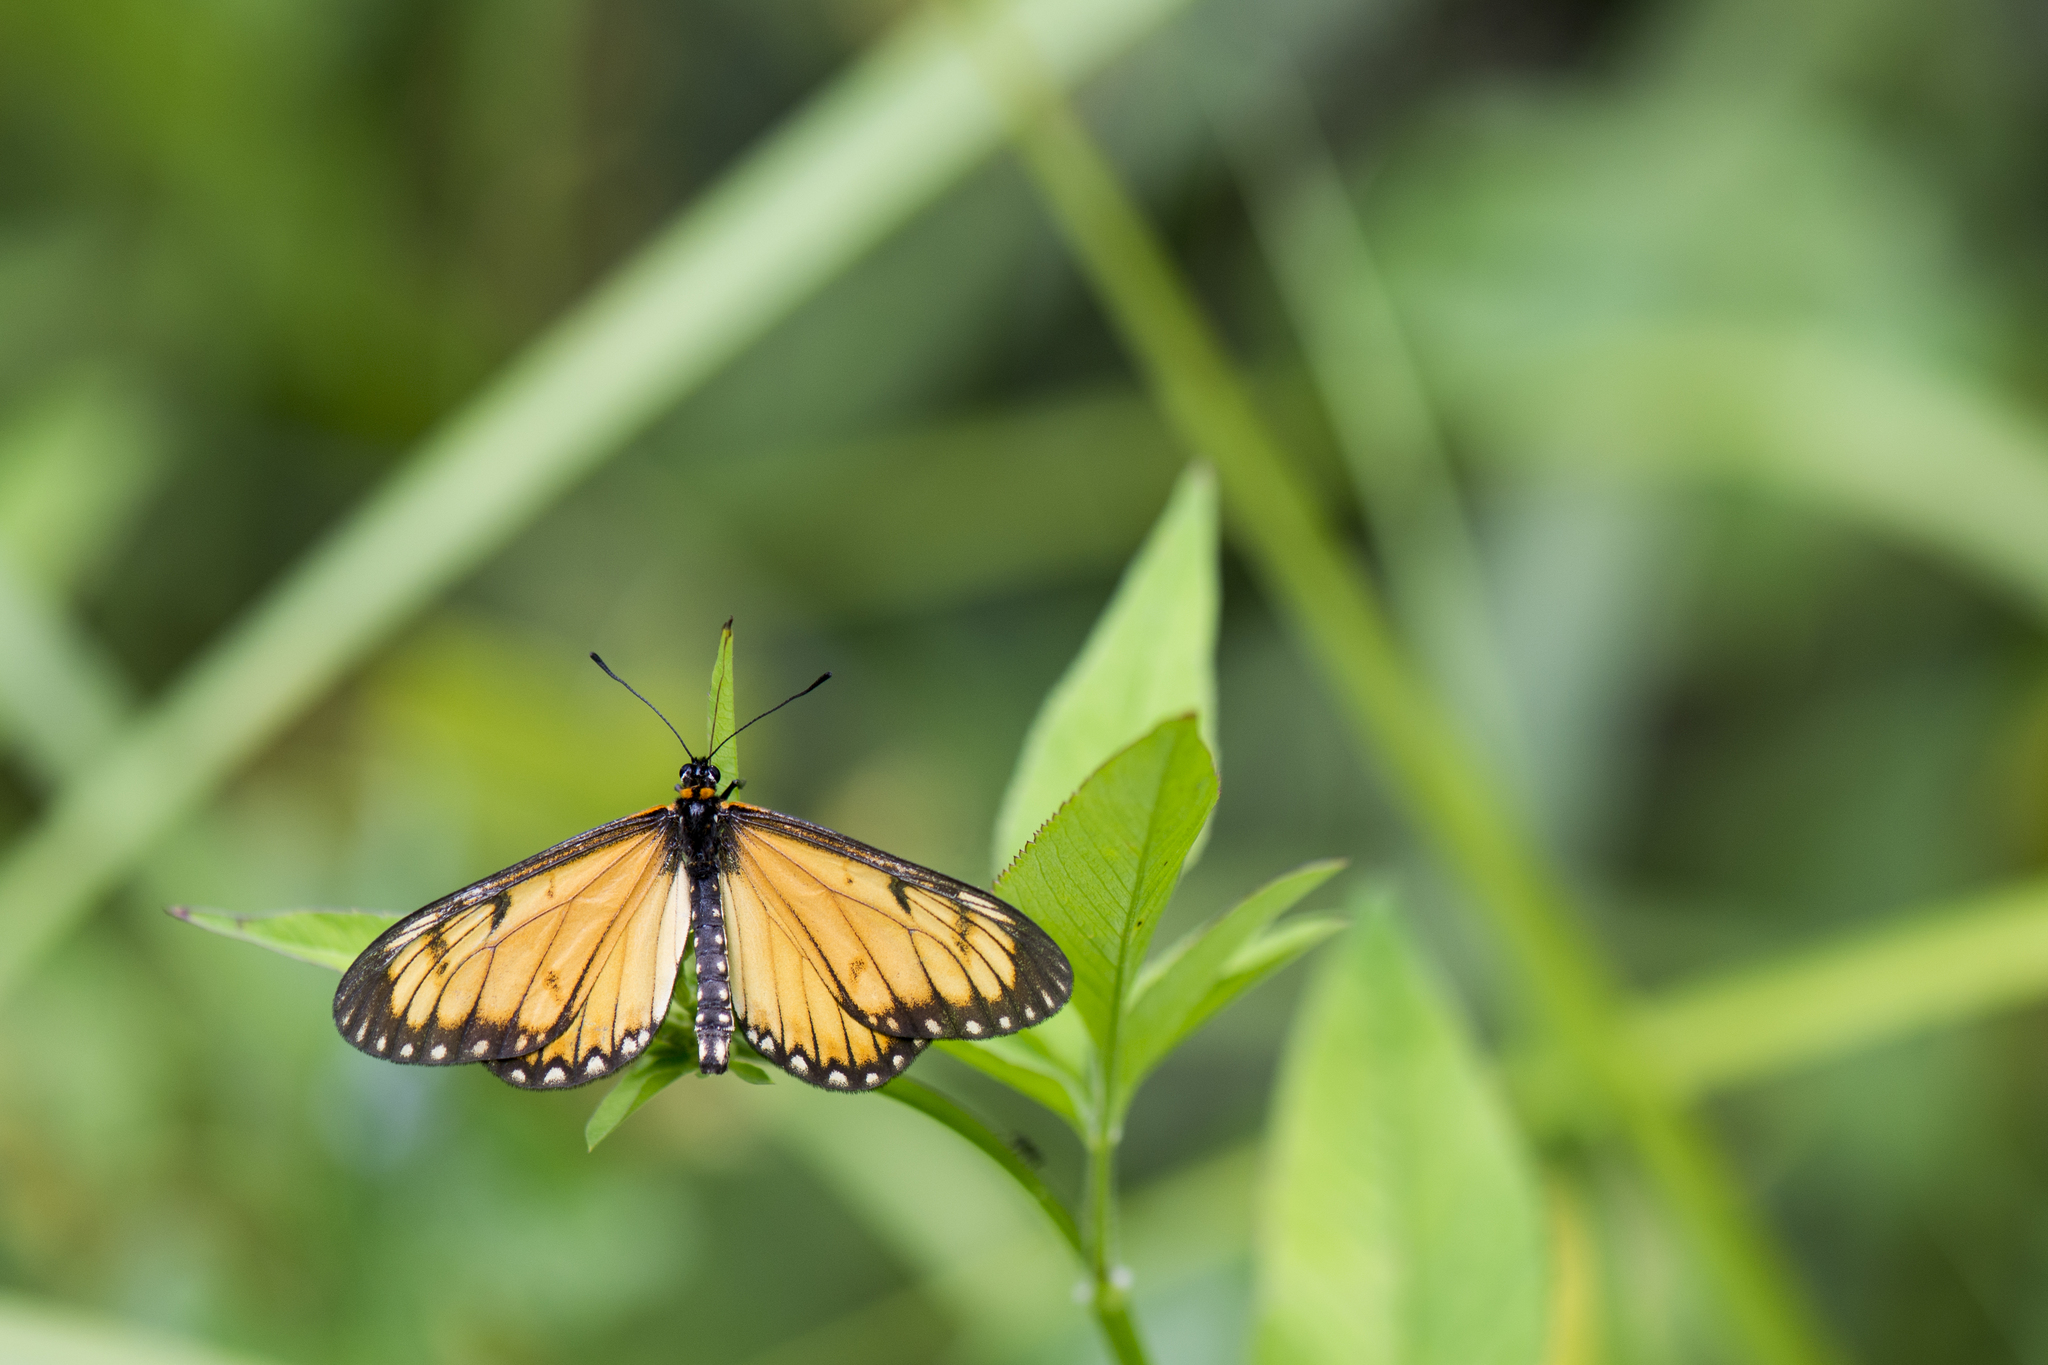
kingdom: Animalia
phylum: Arthropoda
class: Insecta
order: Lepidoptera
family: Nymphalidae
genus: Acraea
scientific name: Acraea Telchinia issoria
